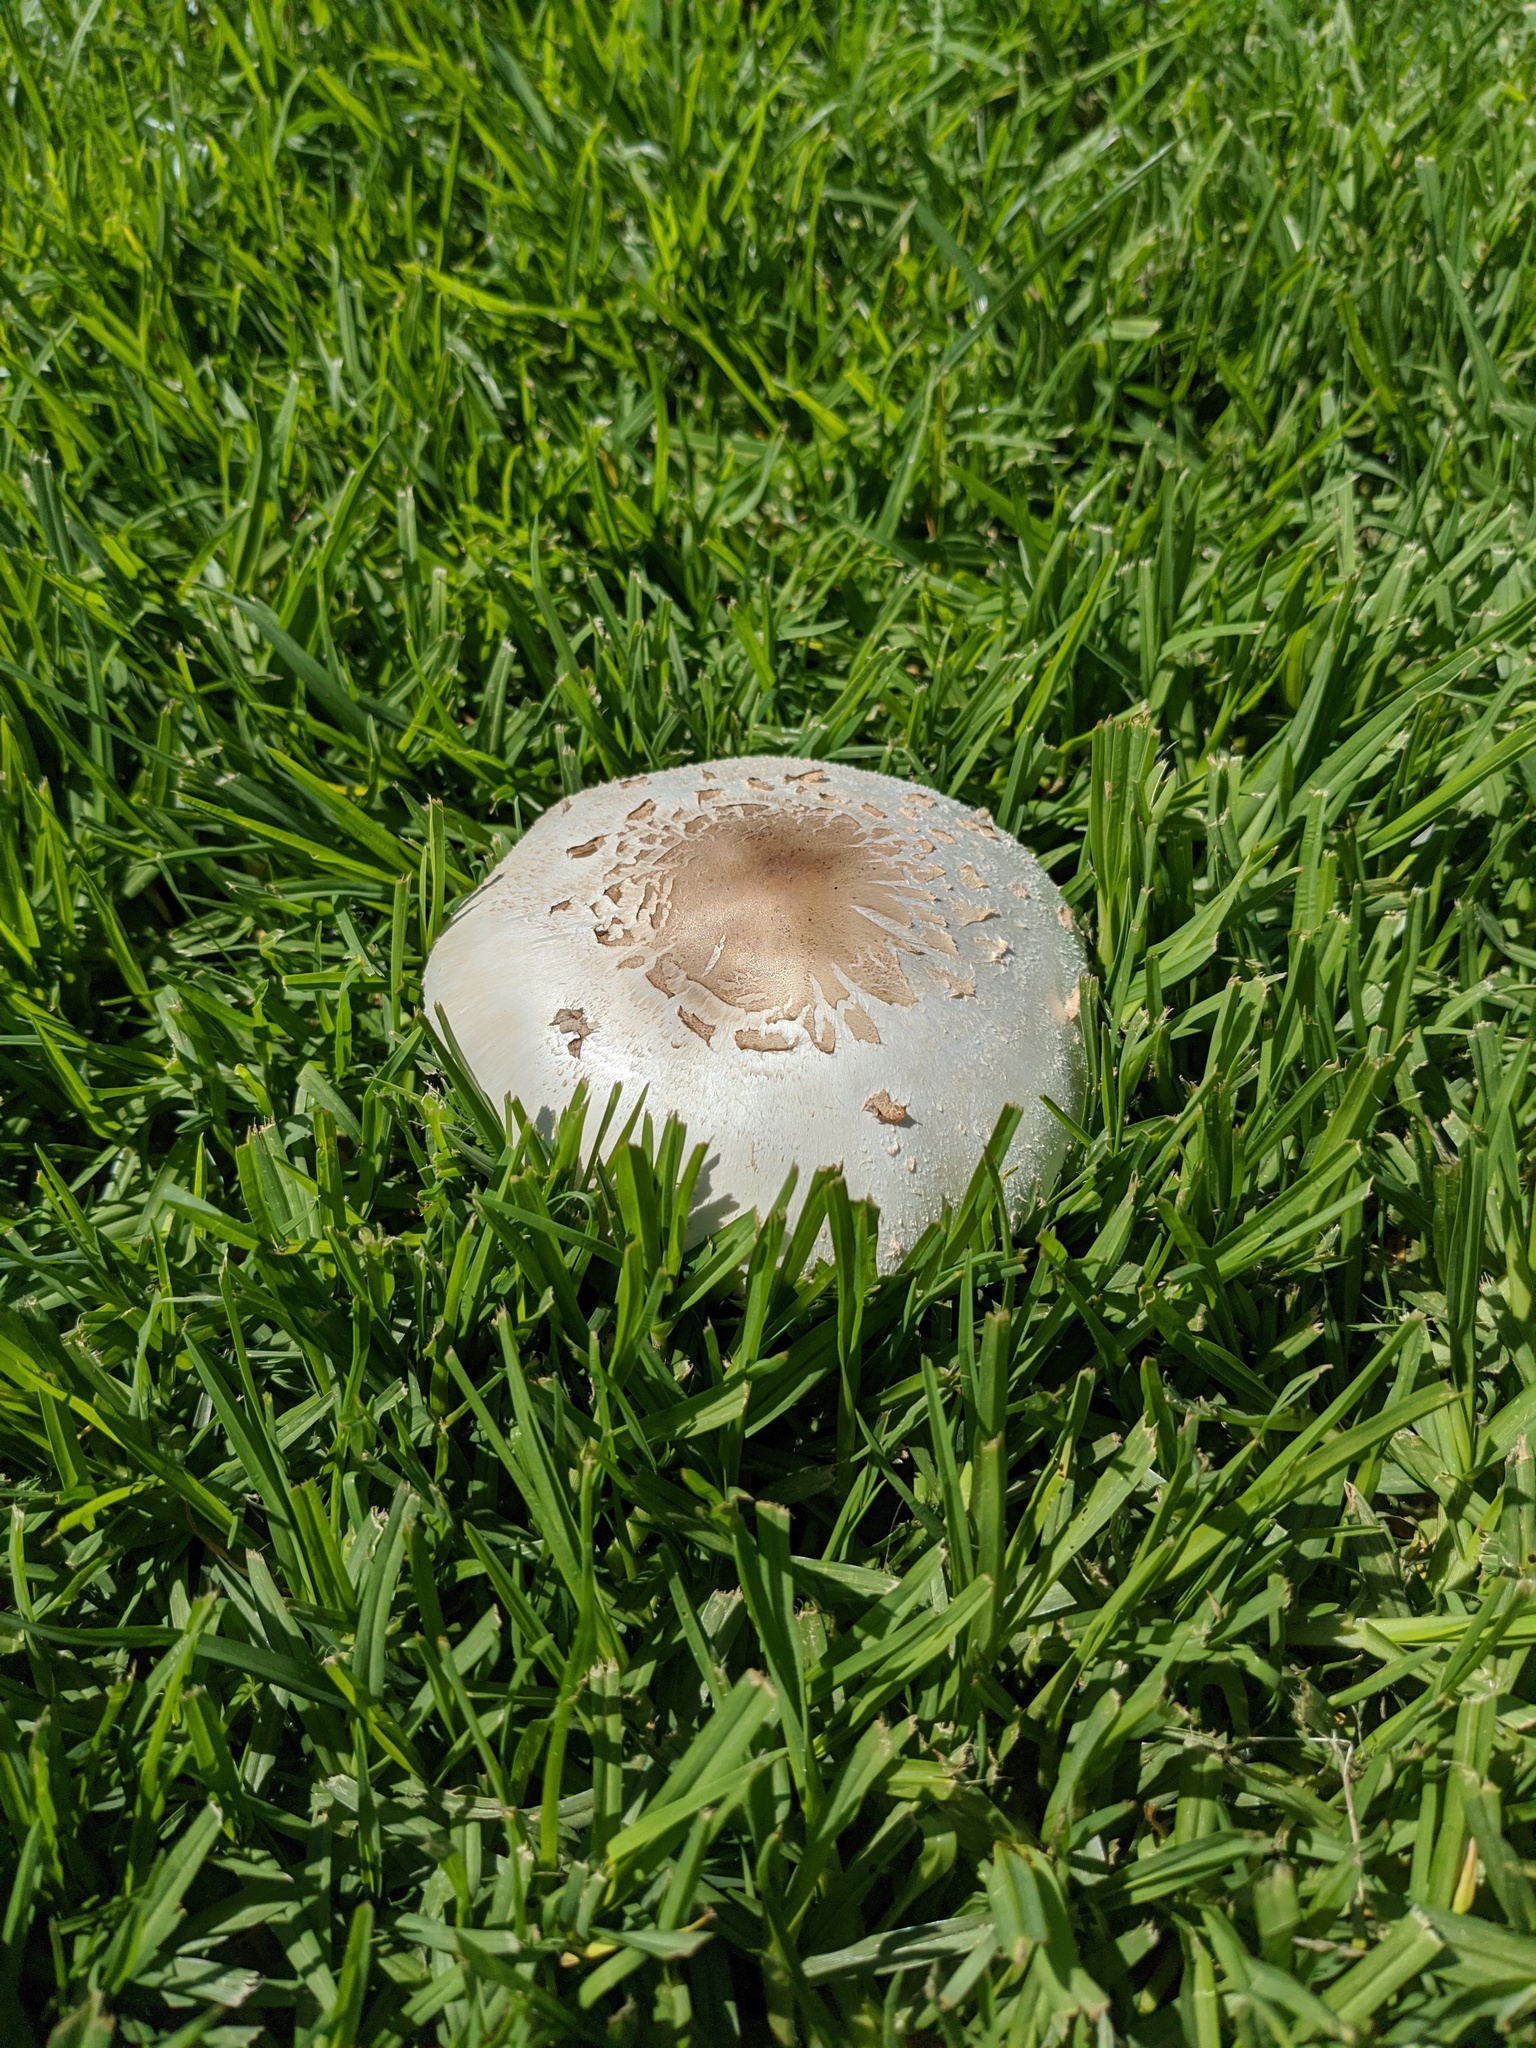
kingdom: Fungi
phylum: Basidiomycota
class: Agaricomycetes
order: Agaricales
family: Agaricaceae
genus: Chlorophyllum
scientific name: Chlorophyllum molybdites
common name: False parasol
